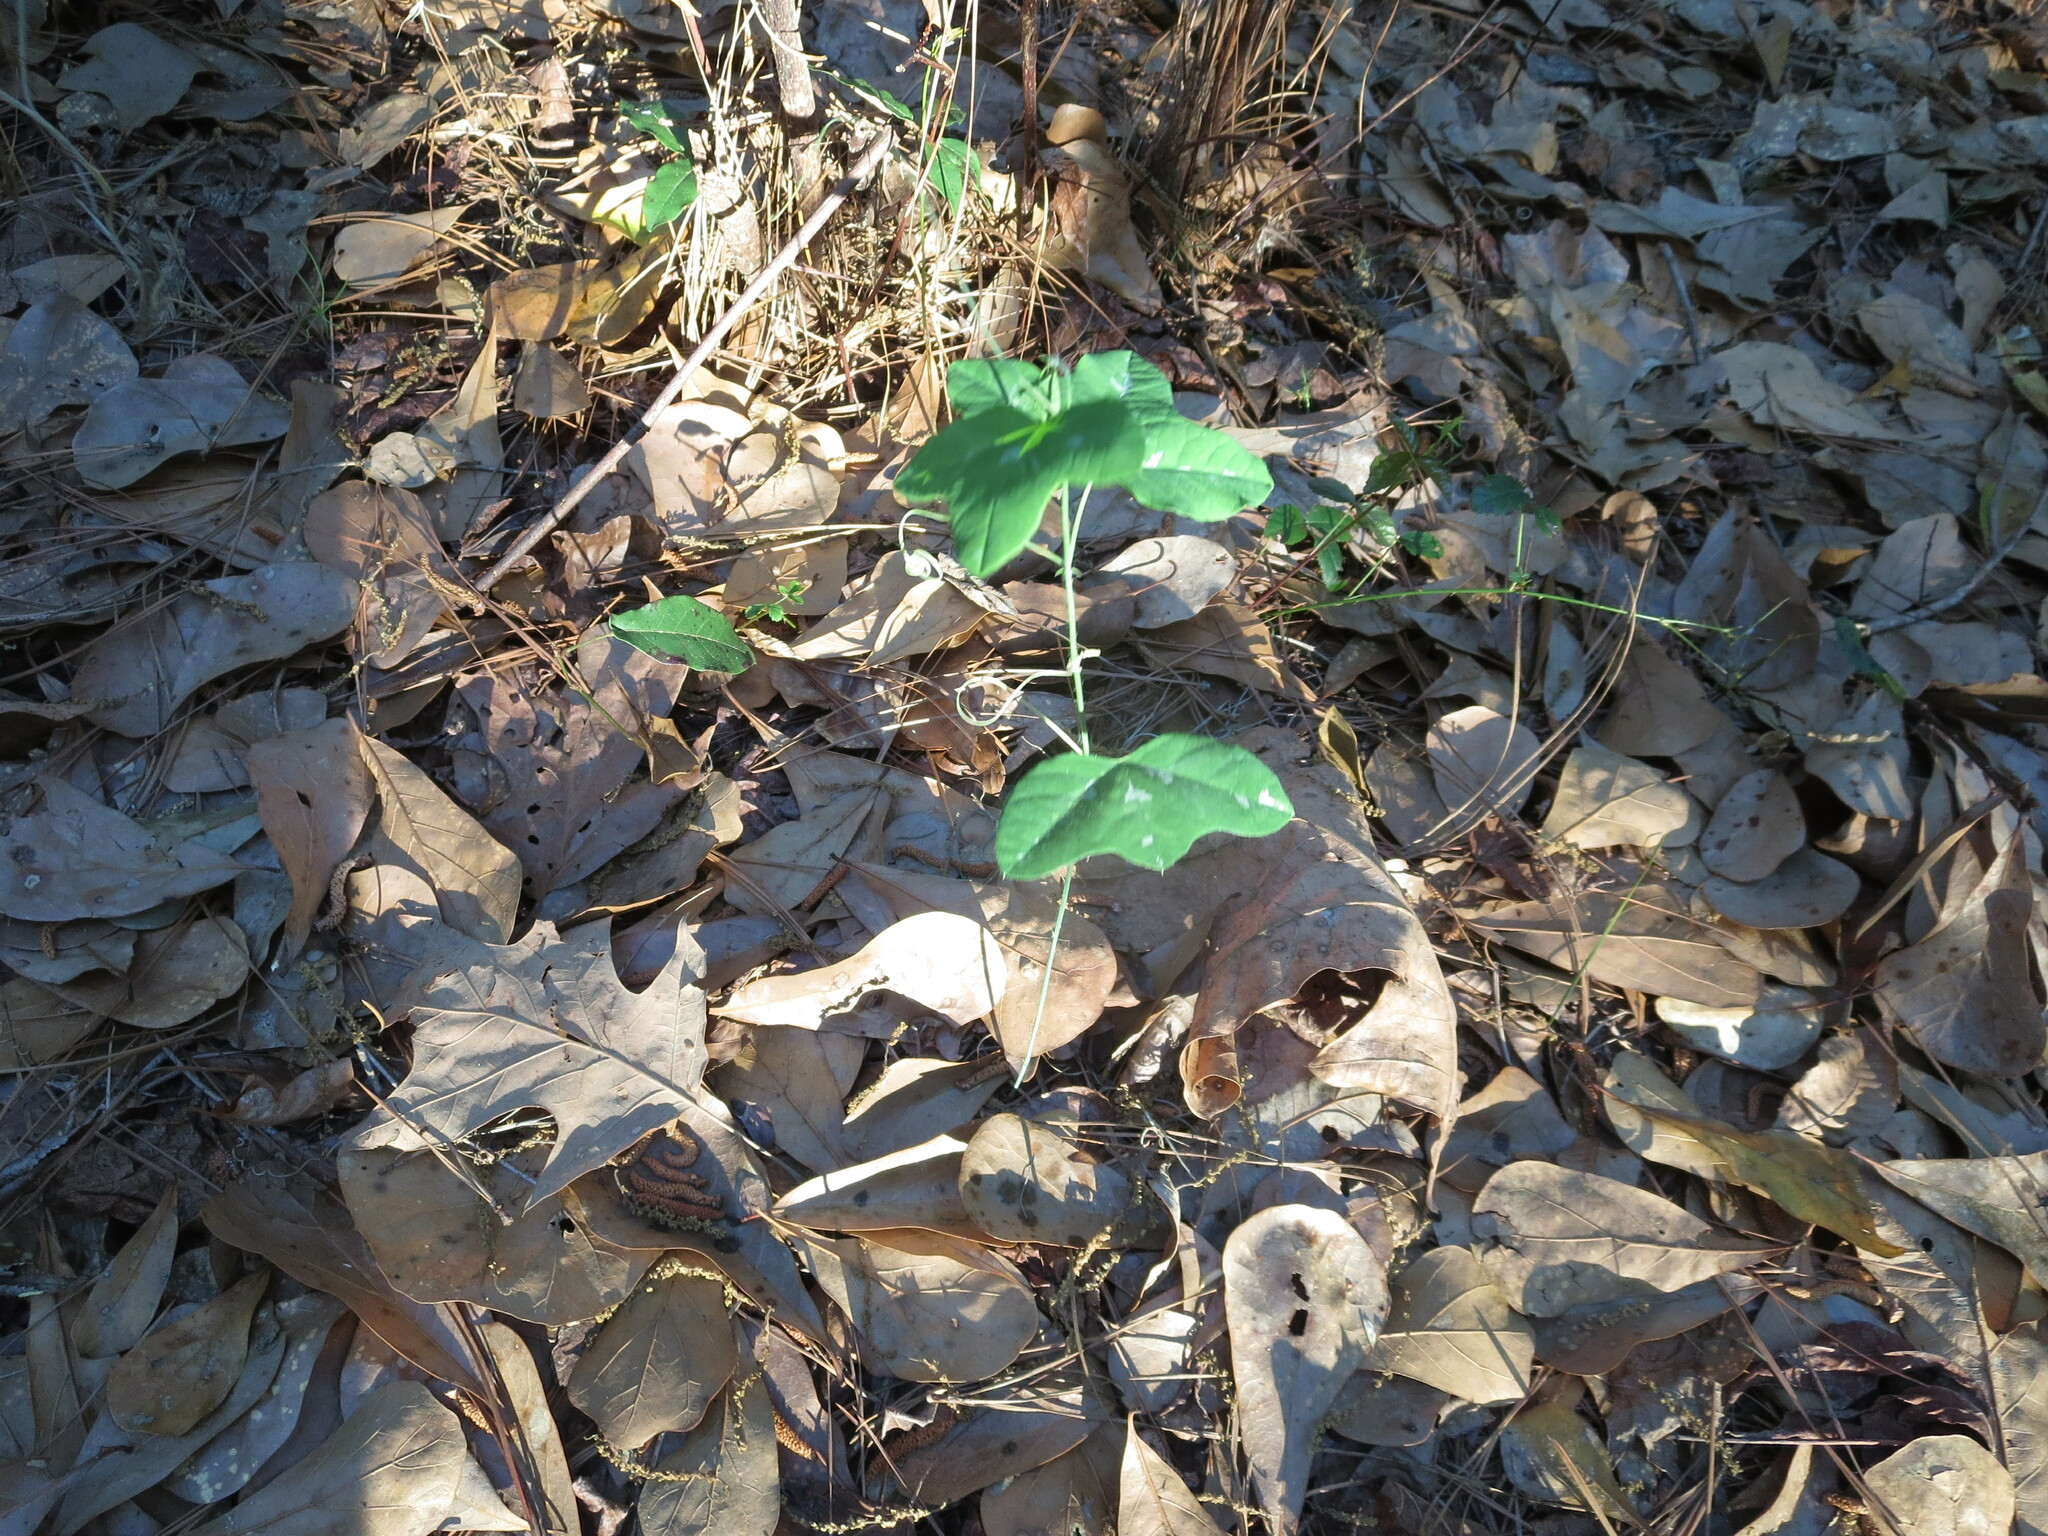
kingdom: Plantae
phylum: Tracheophyta
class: Magnoliopsida
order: Malpighiales
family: Passifloraceae
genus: Passiflora
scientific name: Passiflora lutea
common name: Yellow passionflower
